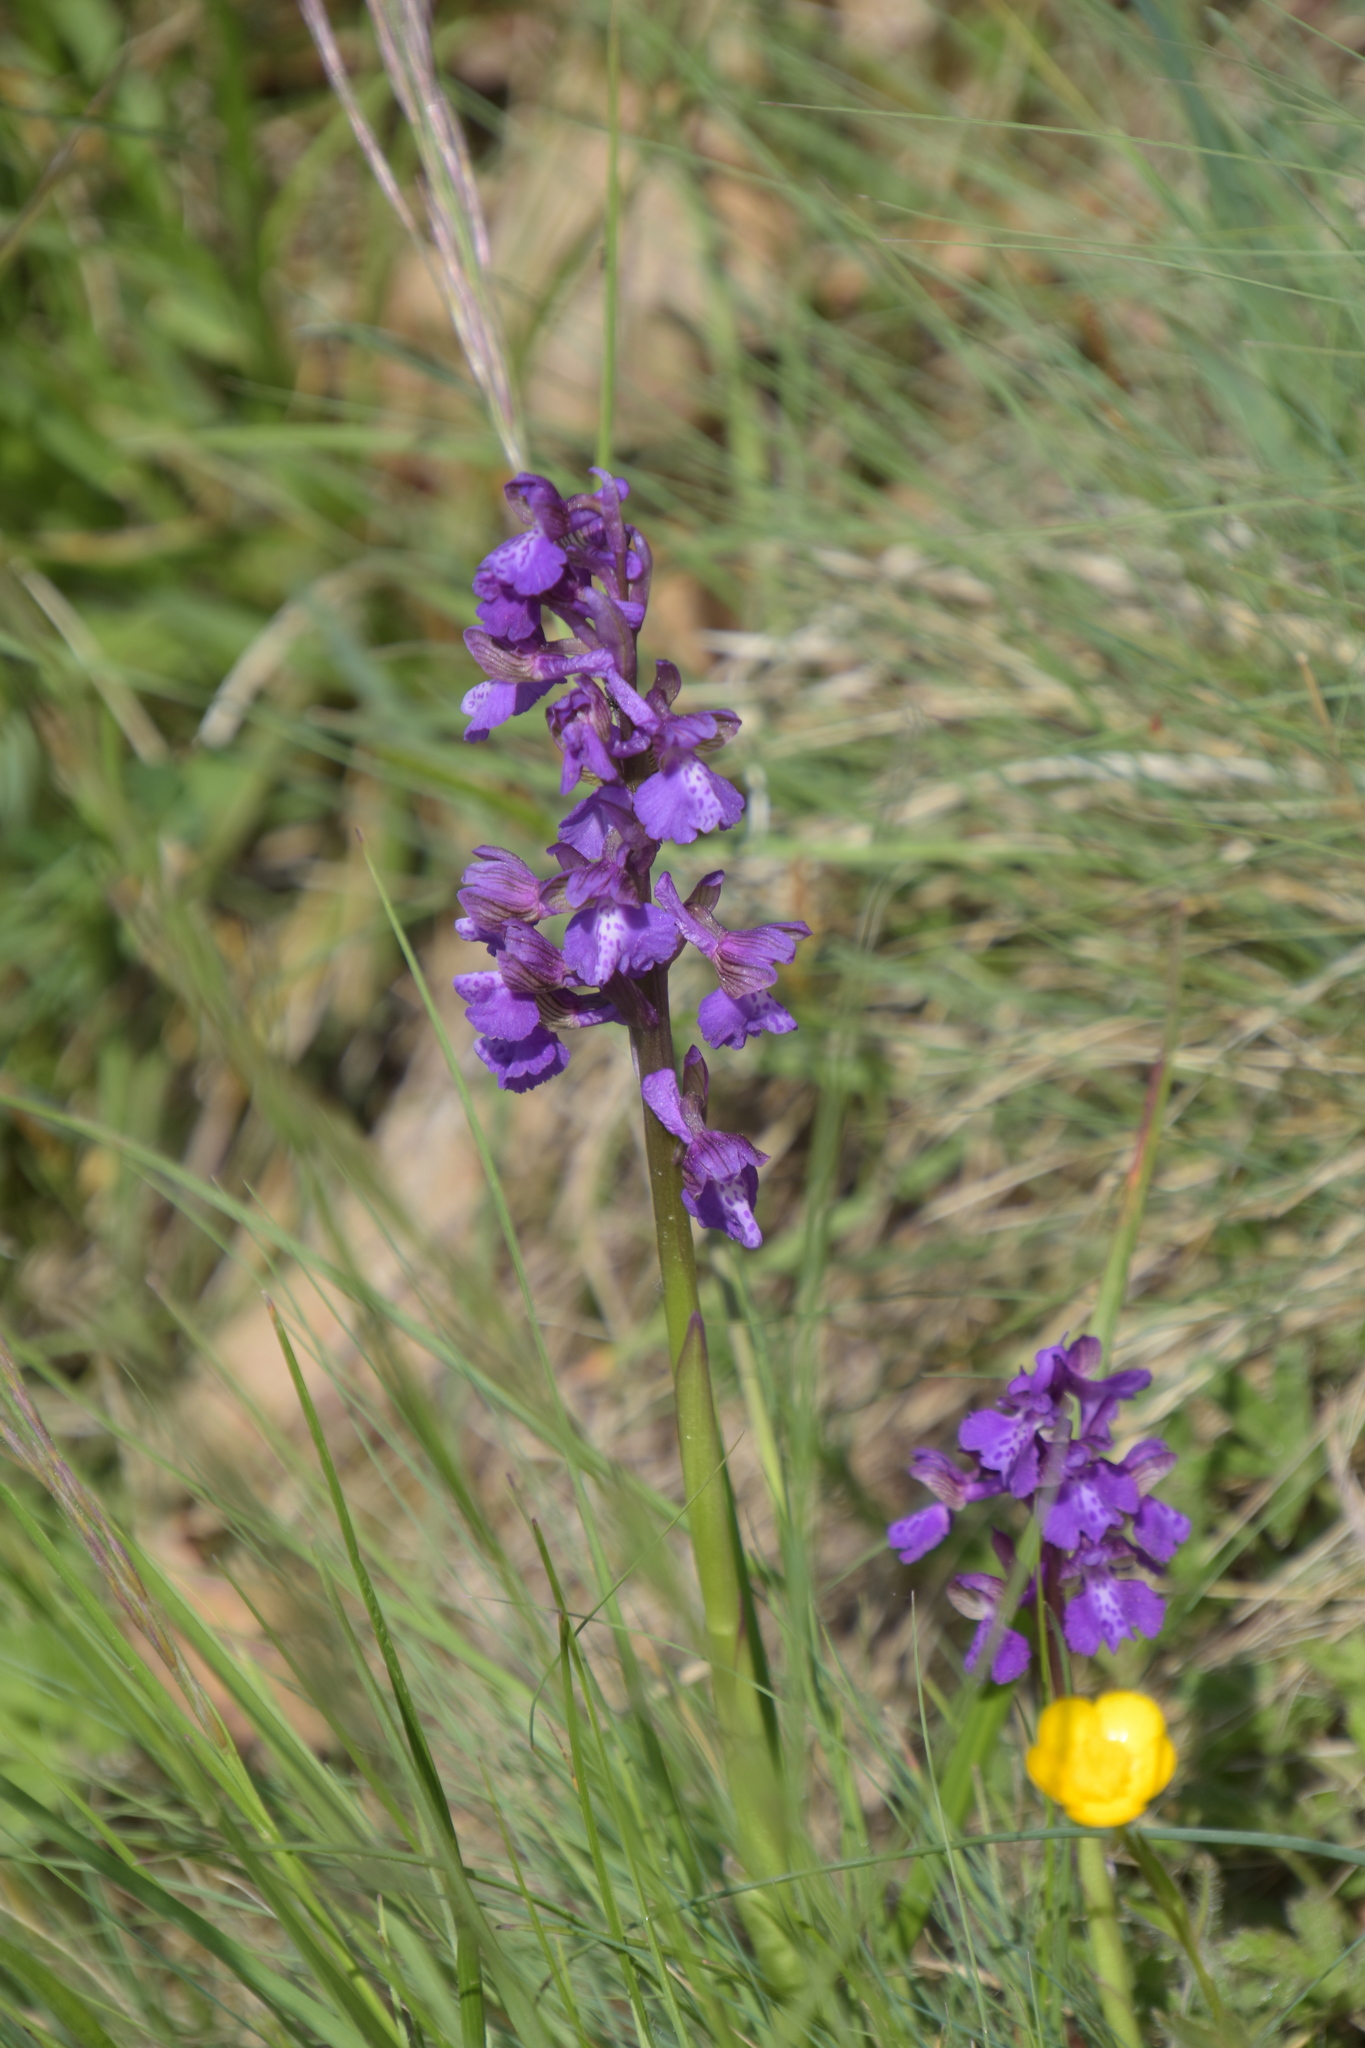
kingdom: Plantae
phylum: Tracheophyta
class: Liliopsida
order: Asparagales
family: Orchidaceae
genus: Anacamptis
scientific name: Anacamptis morio
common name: Green-winged orchid
